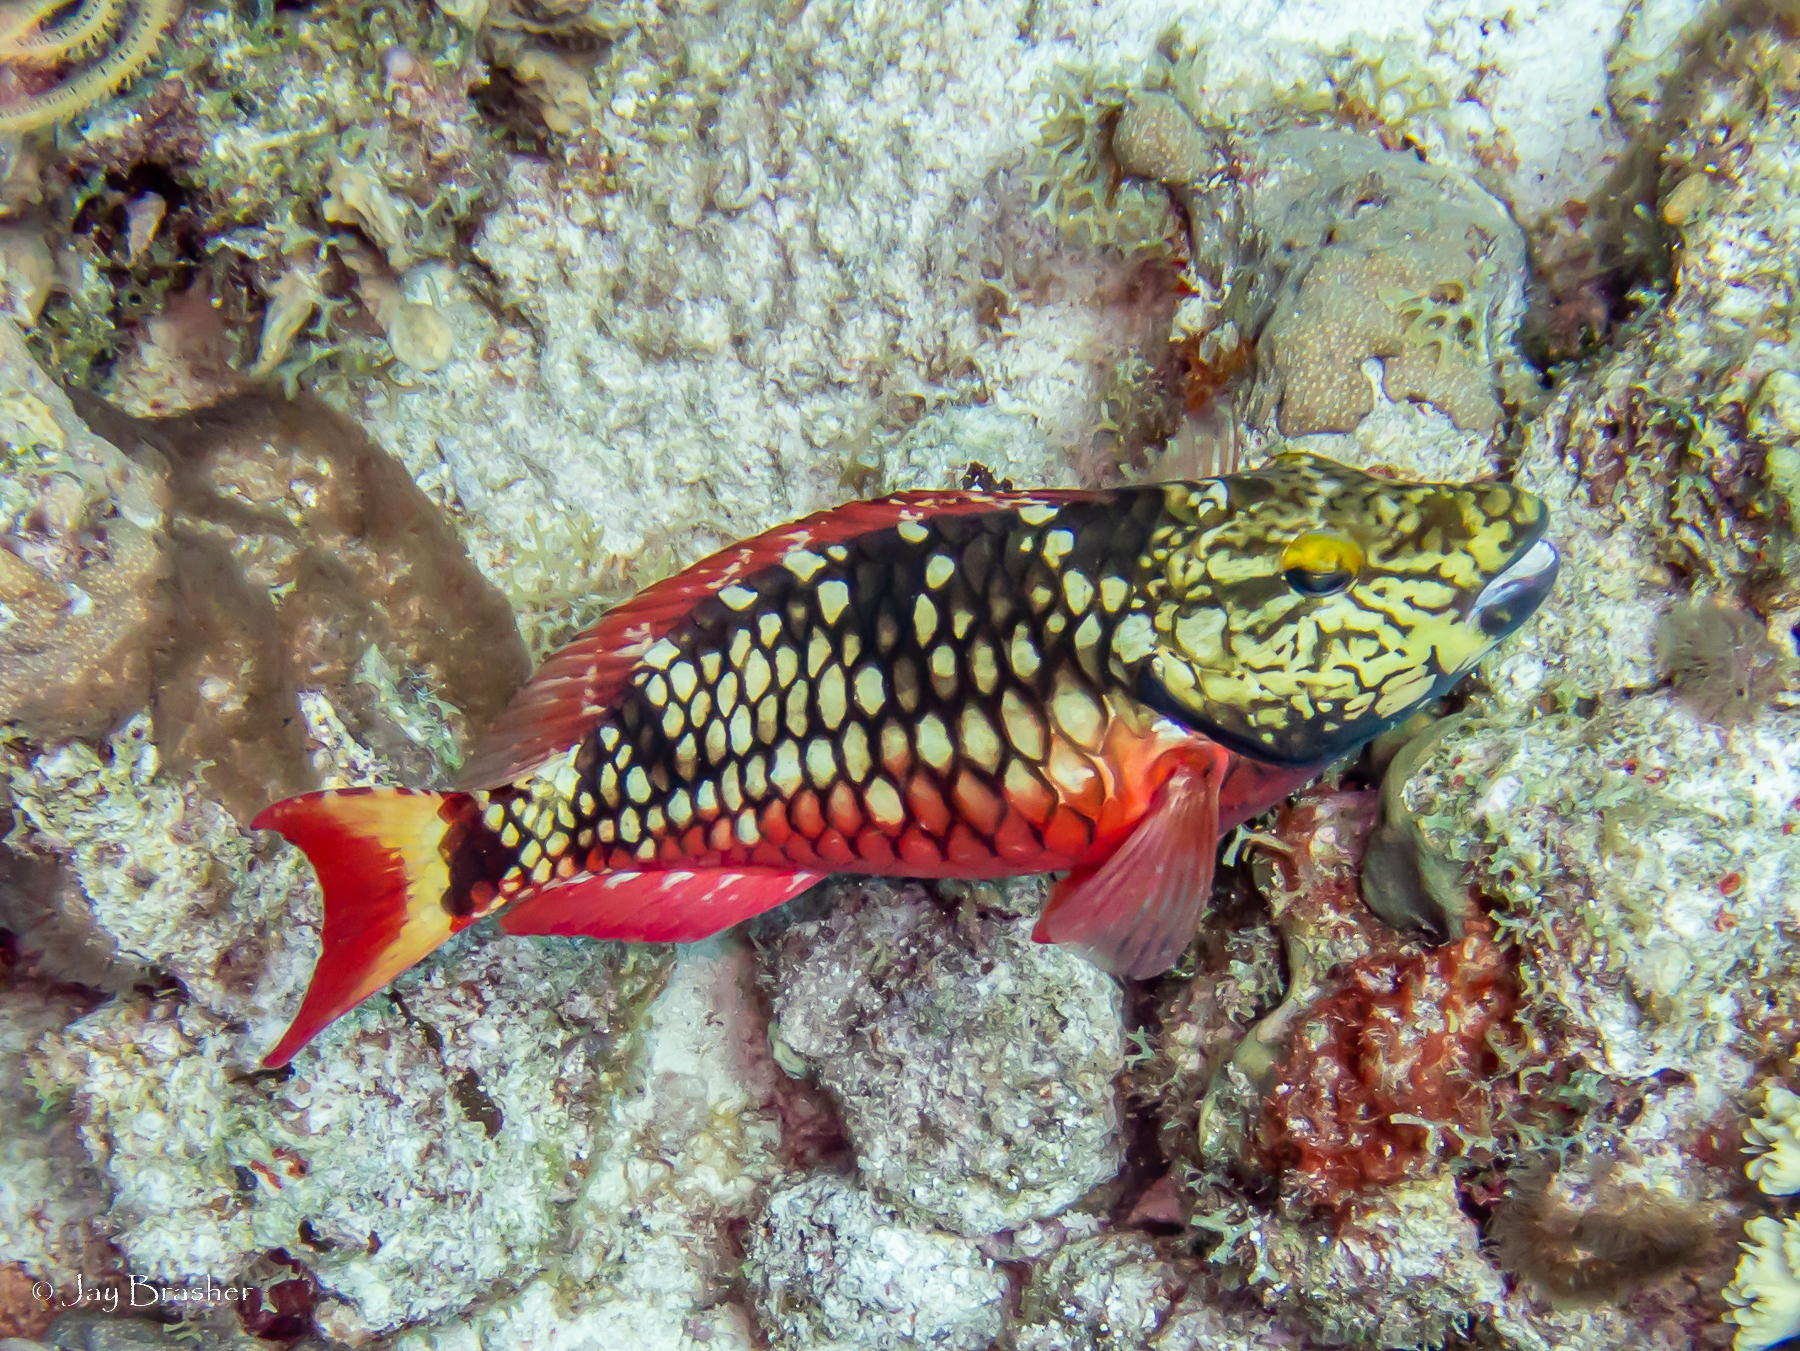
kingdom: Animalia
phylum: Chordata
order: Perciformes
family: Scaridae
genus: Sparisoma
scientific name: Sparisoma viride
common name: Stoplight parrotfish
